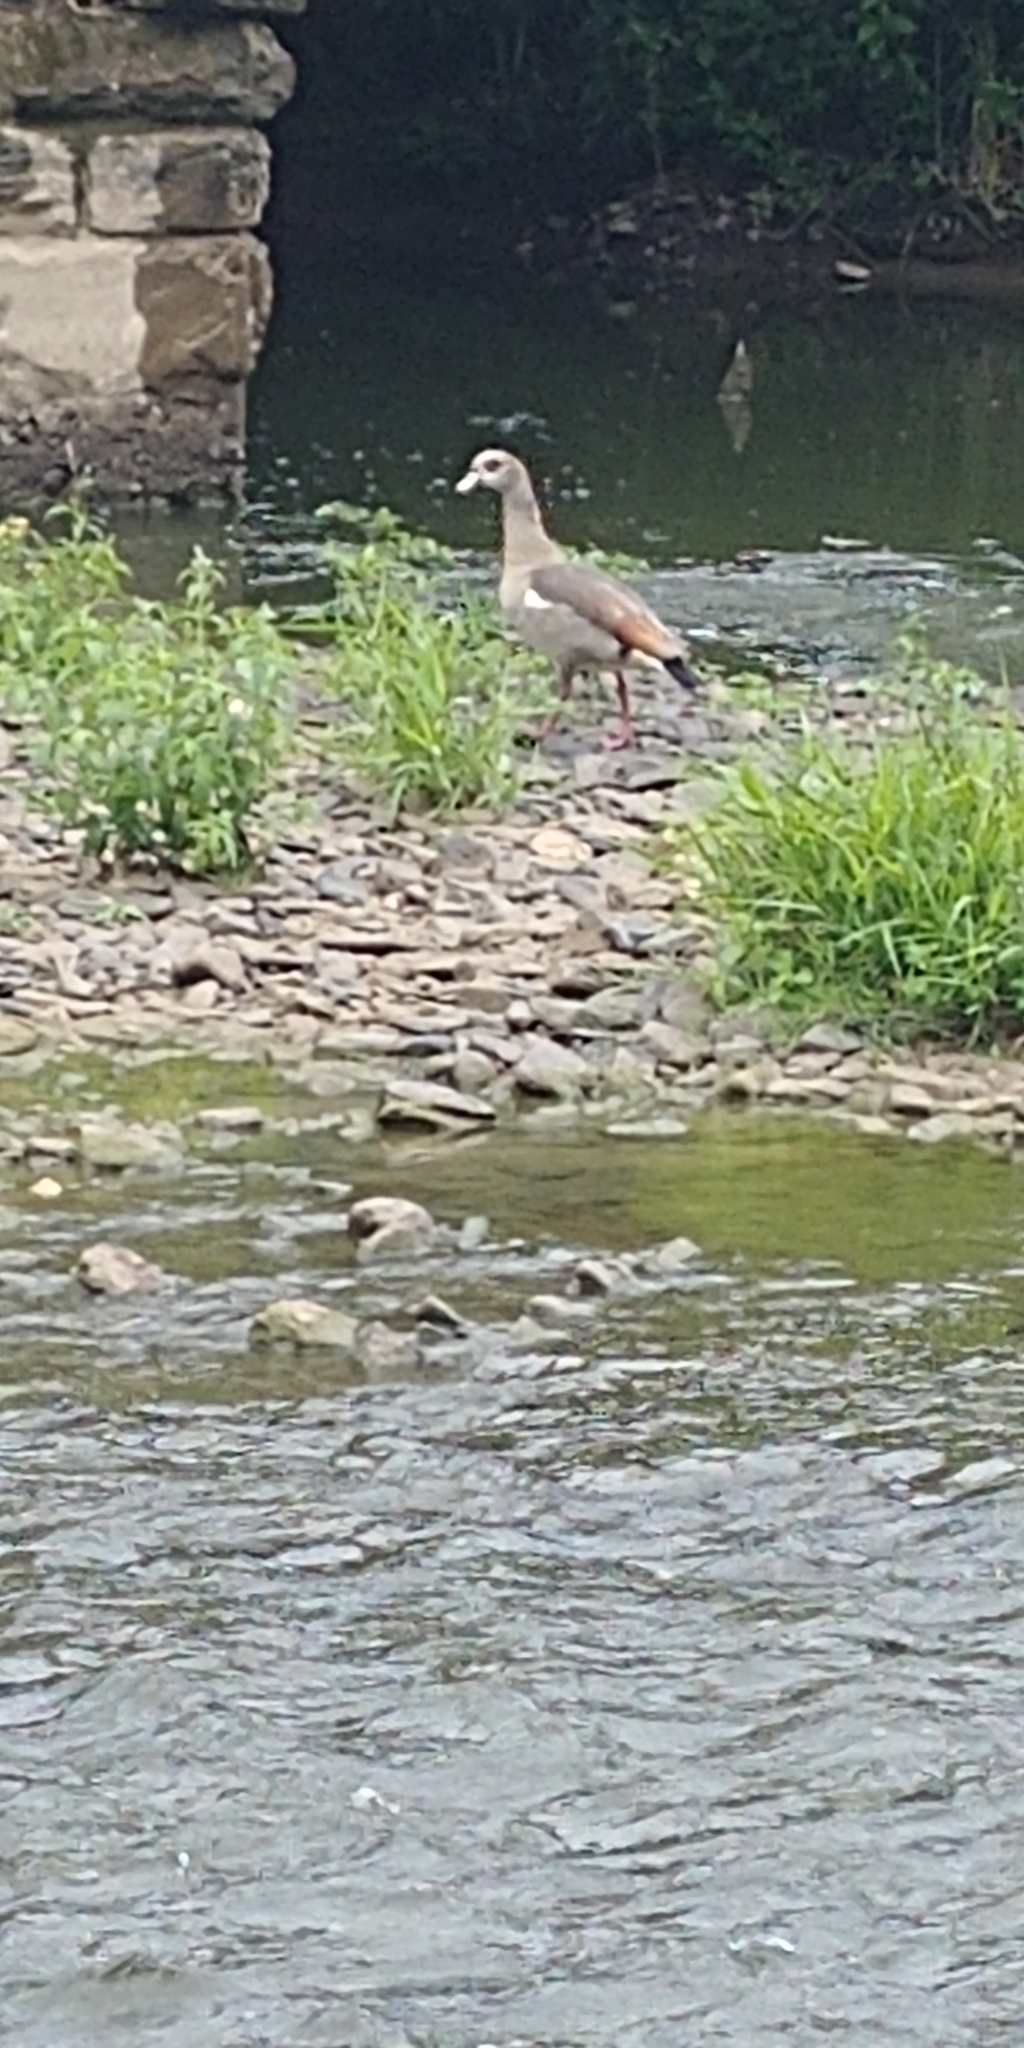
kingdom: Animalia
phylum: Chordata
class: Aves
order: Anseriformes
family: Anatidae
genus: Alopochen
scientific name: Alopochen aegyptiaca
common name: Egyptian goose
